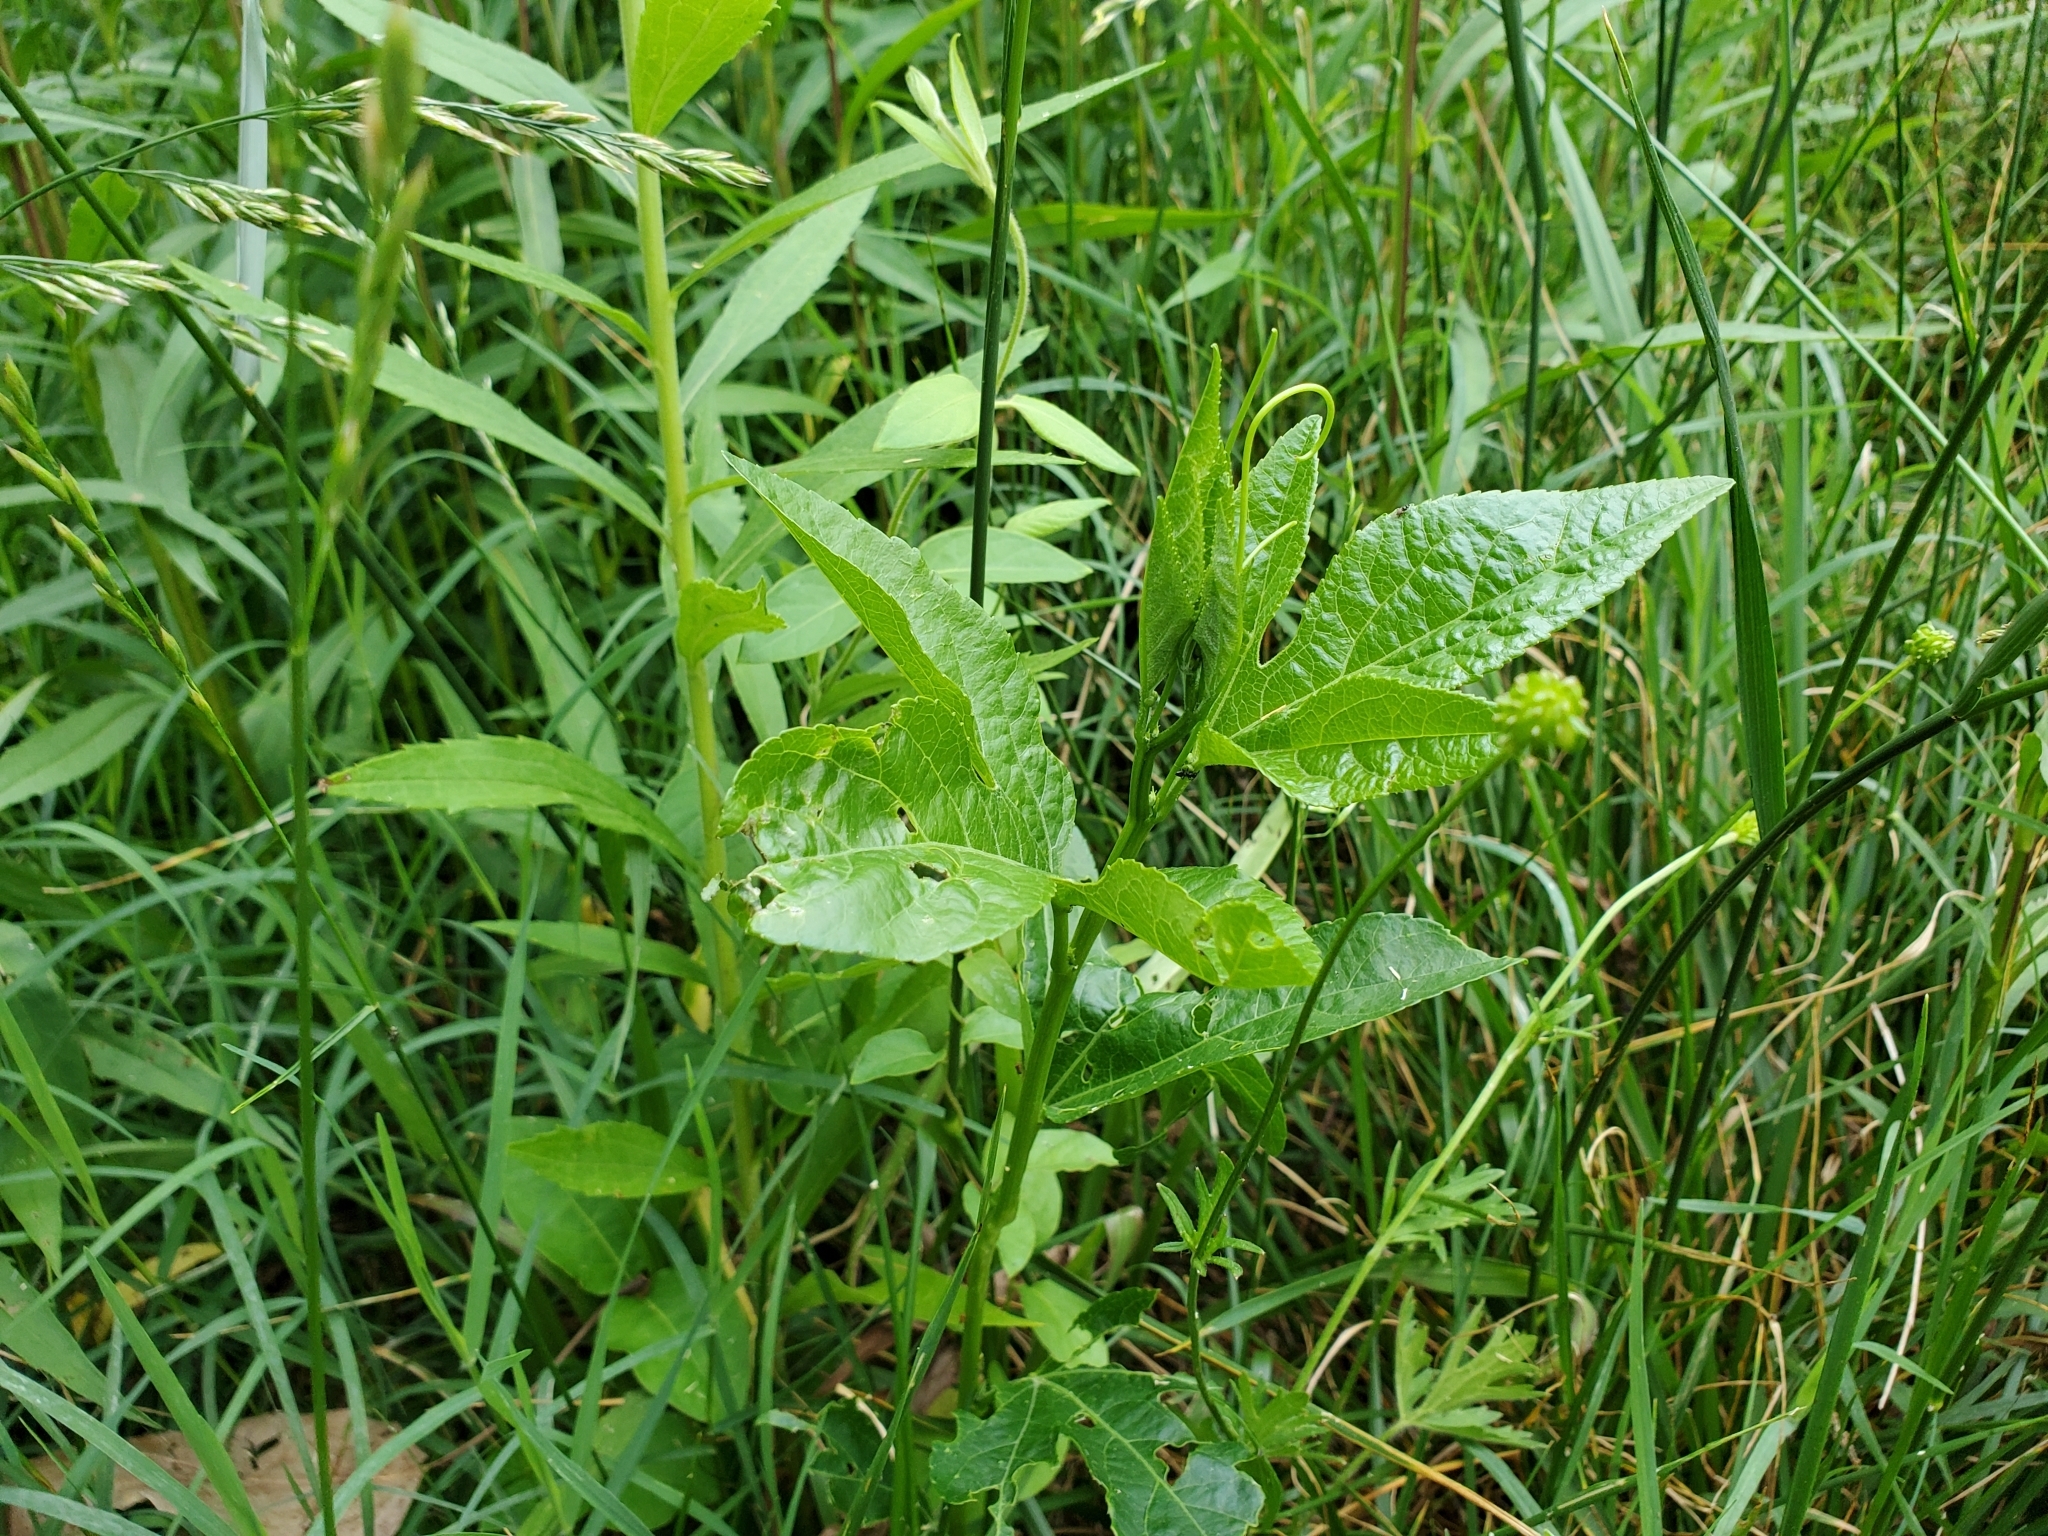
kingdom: Plantae
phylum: Tracheophyta
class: Magnoliopsida
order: Malpighiales
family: Passifloraceae
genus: Passiflora
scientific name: Passiflora incarnata
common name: Apricot-vine
